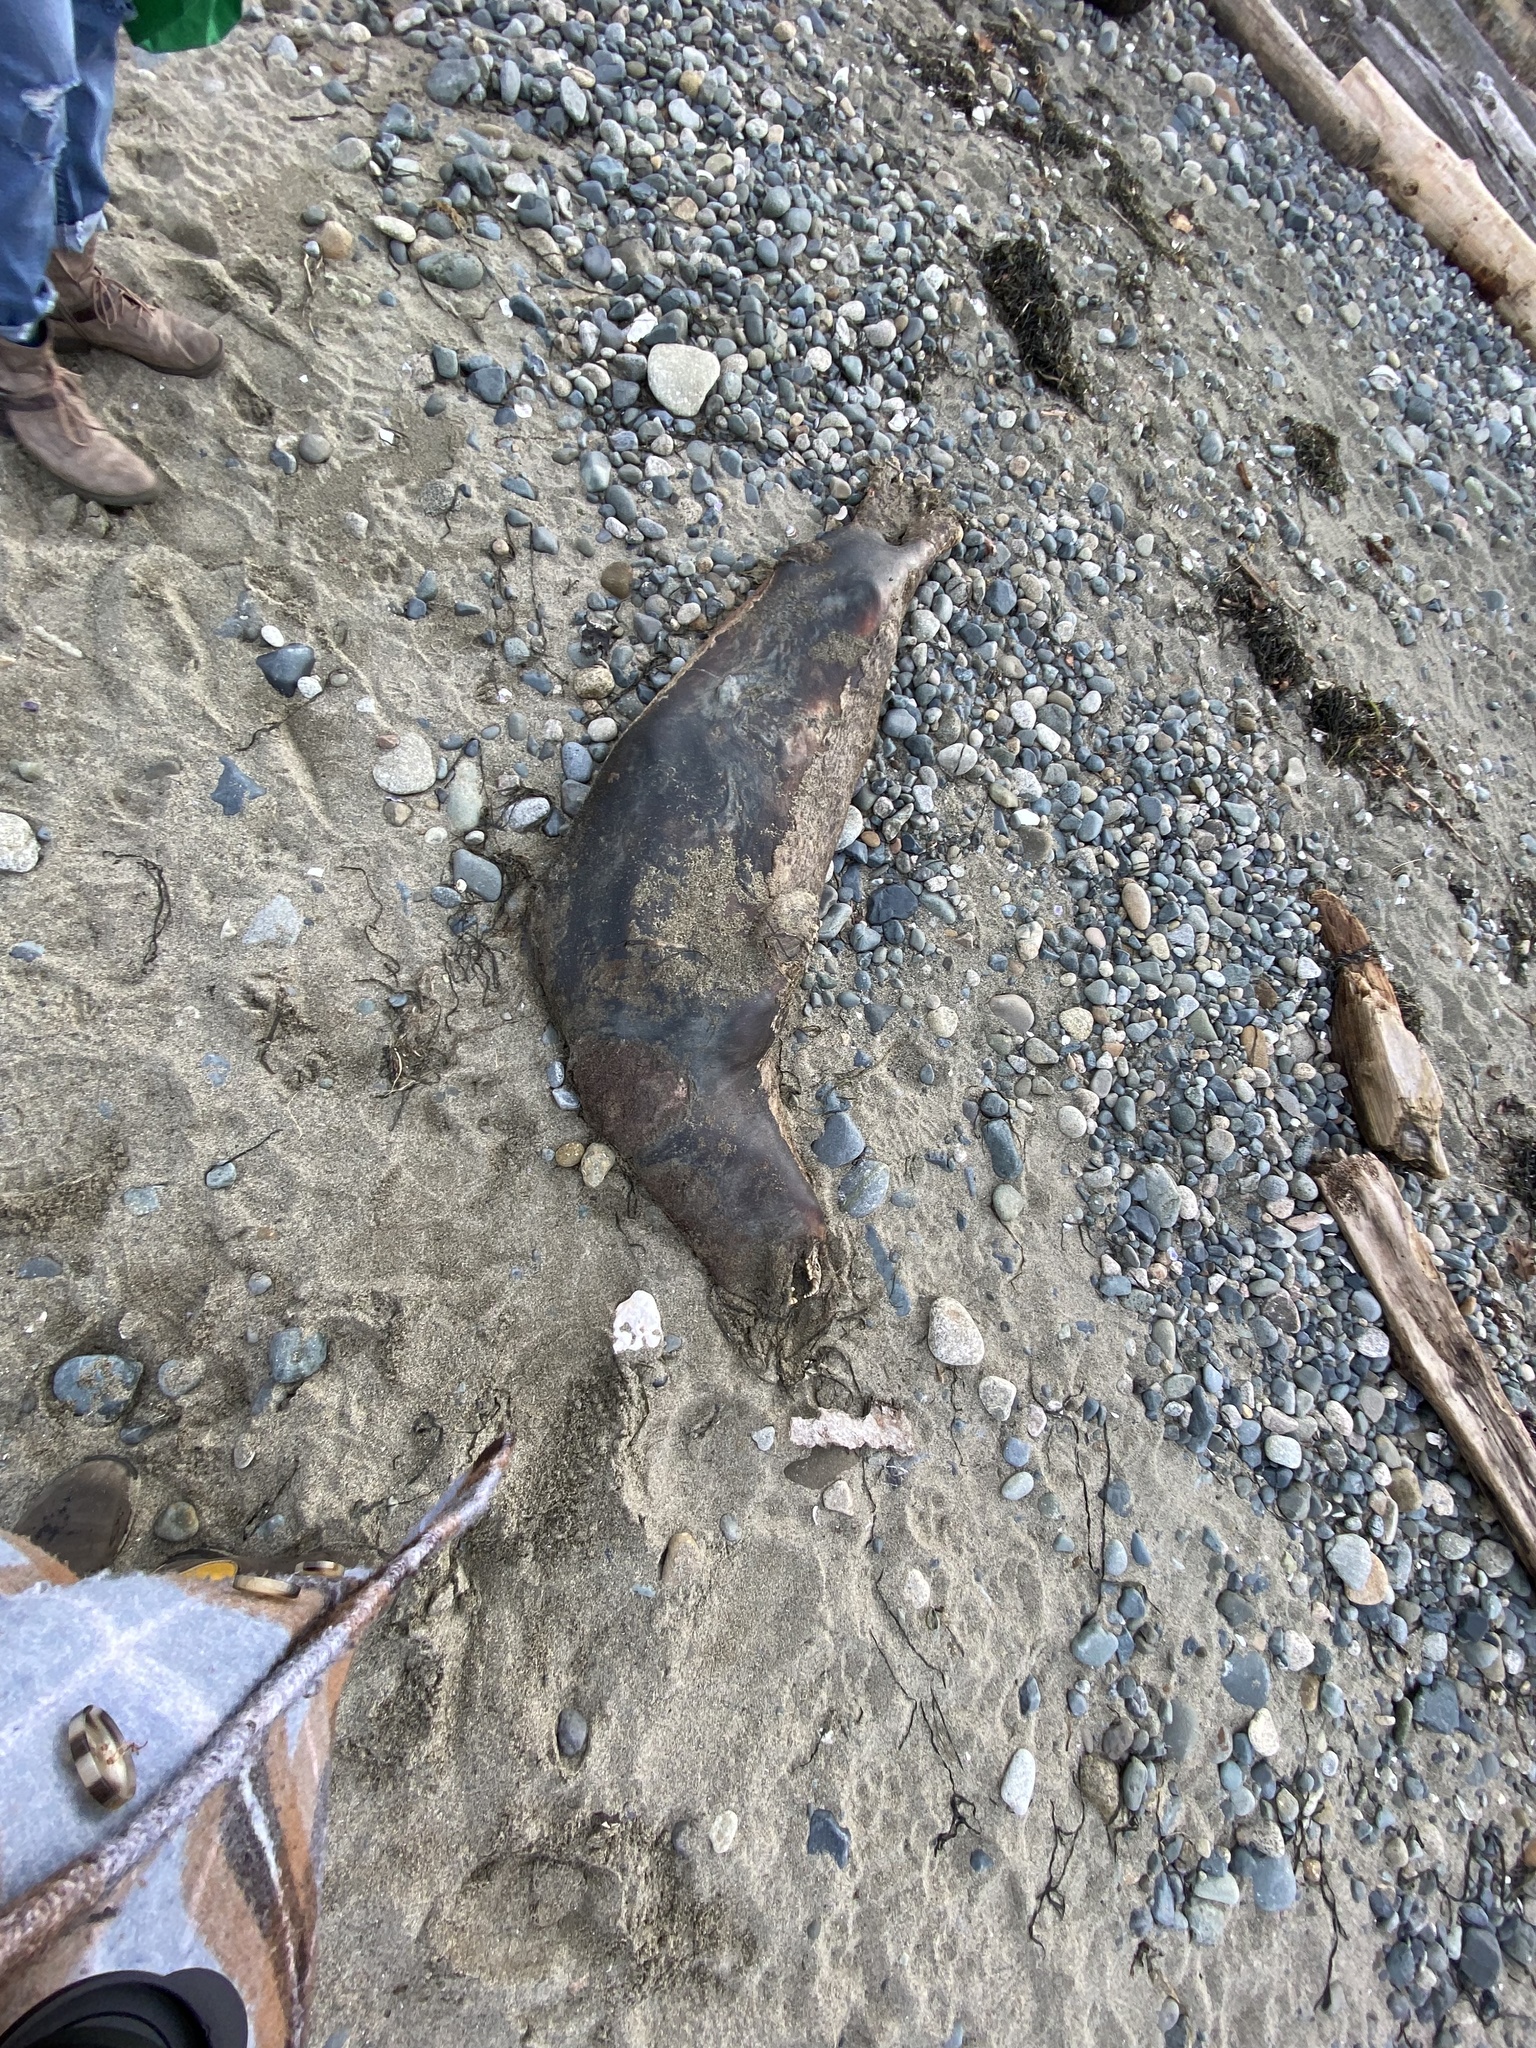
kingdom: Animalia
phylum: Chordata
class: Mammalia
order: Carnivora
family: Phocidae
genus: Phoca
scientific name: Phoca vitulina
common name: Harbor seal
